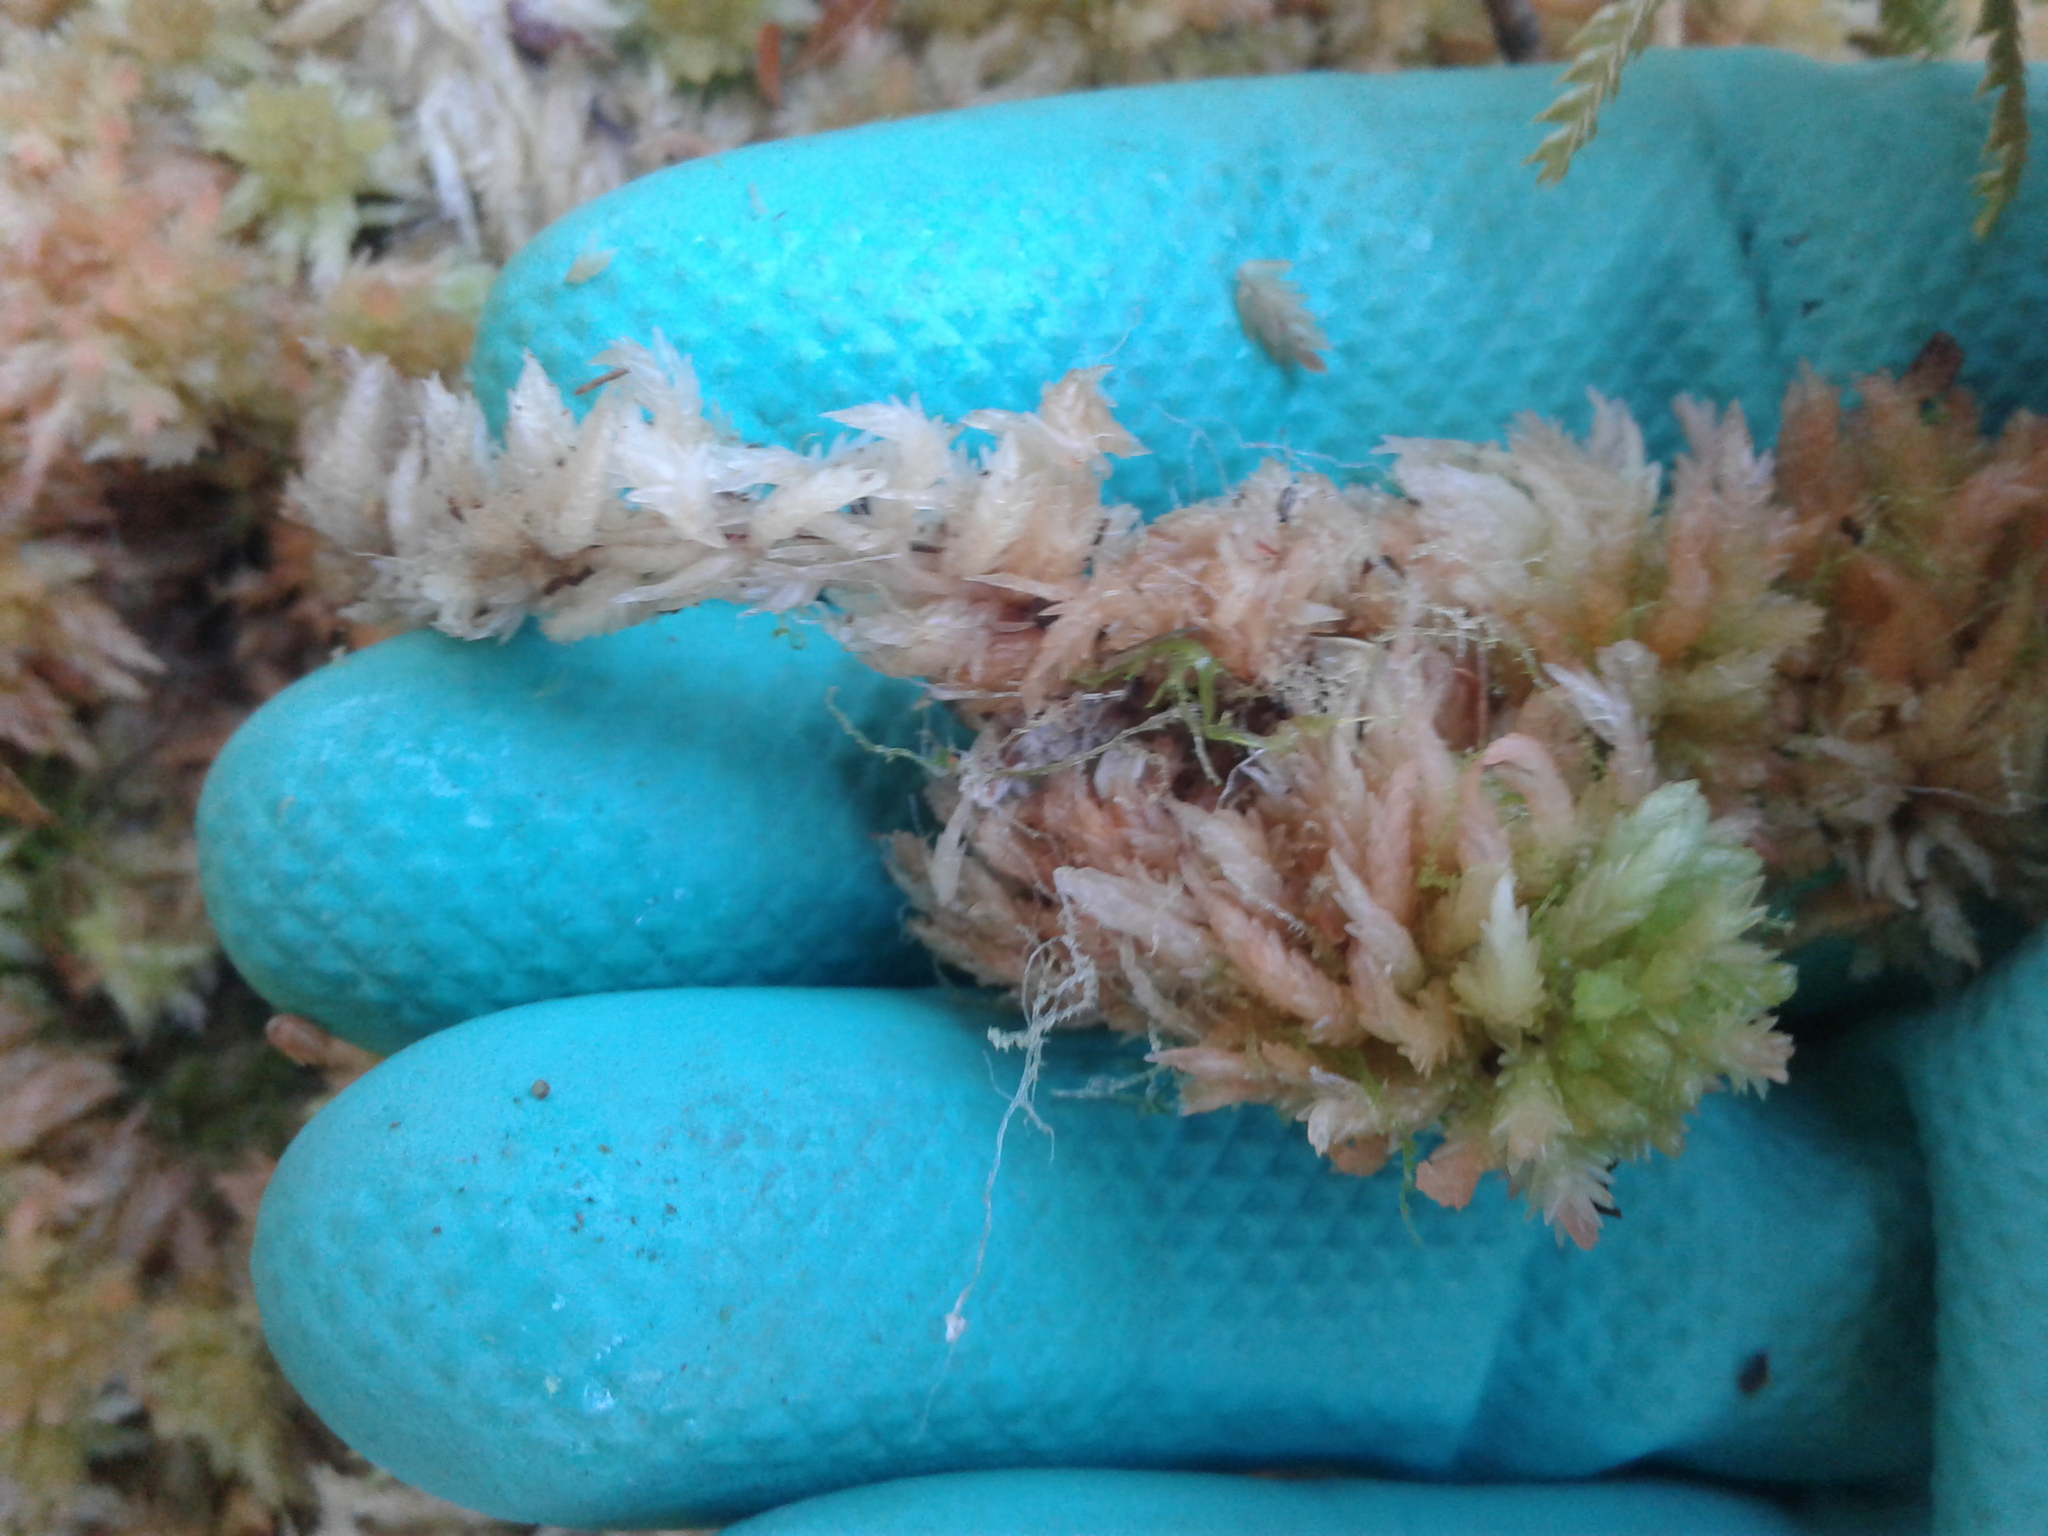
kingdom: Plantae
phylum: Bryophyta
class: Sphagnopsida
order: Sphagnales
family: Sphagnaceae
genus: Sphagnum
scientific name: Sphagnum cristatum
